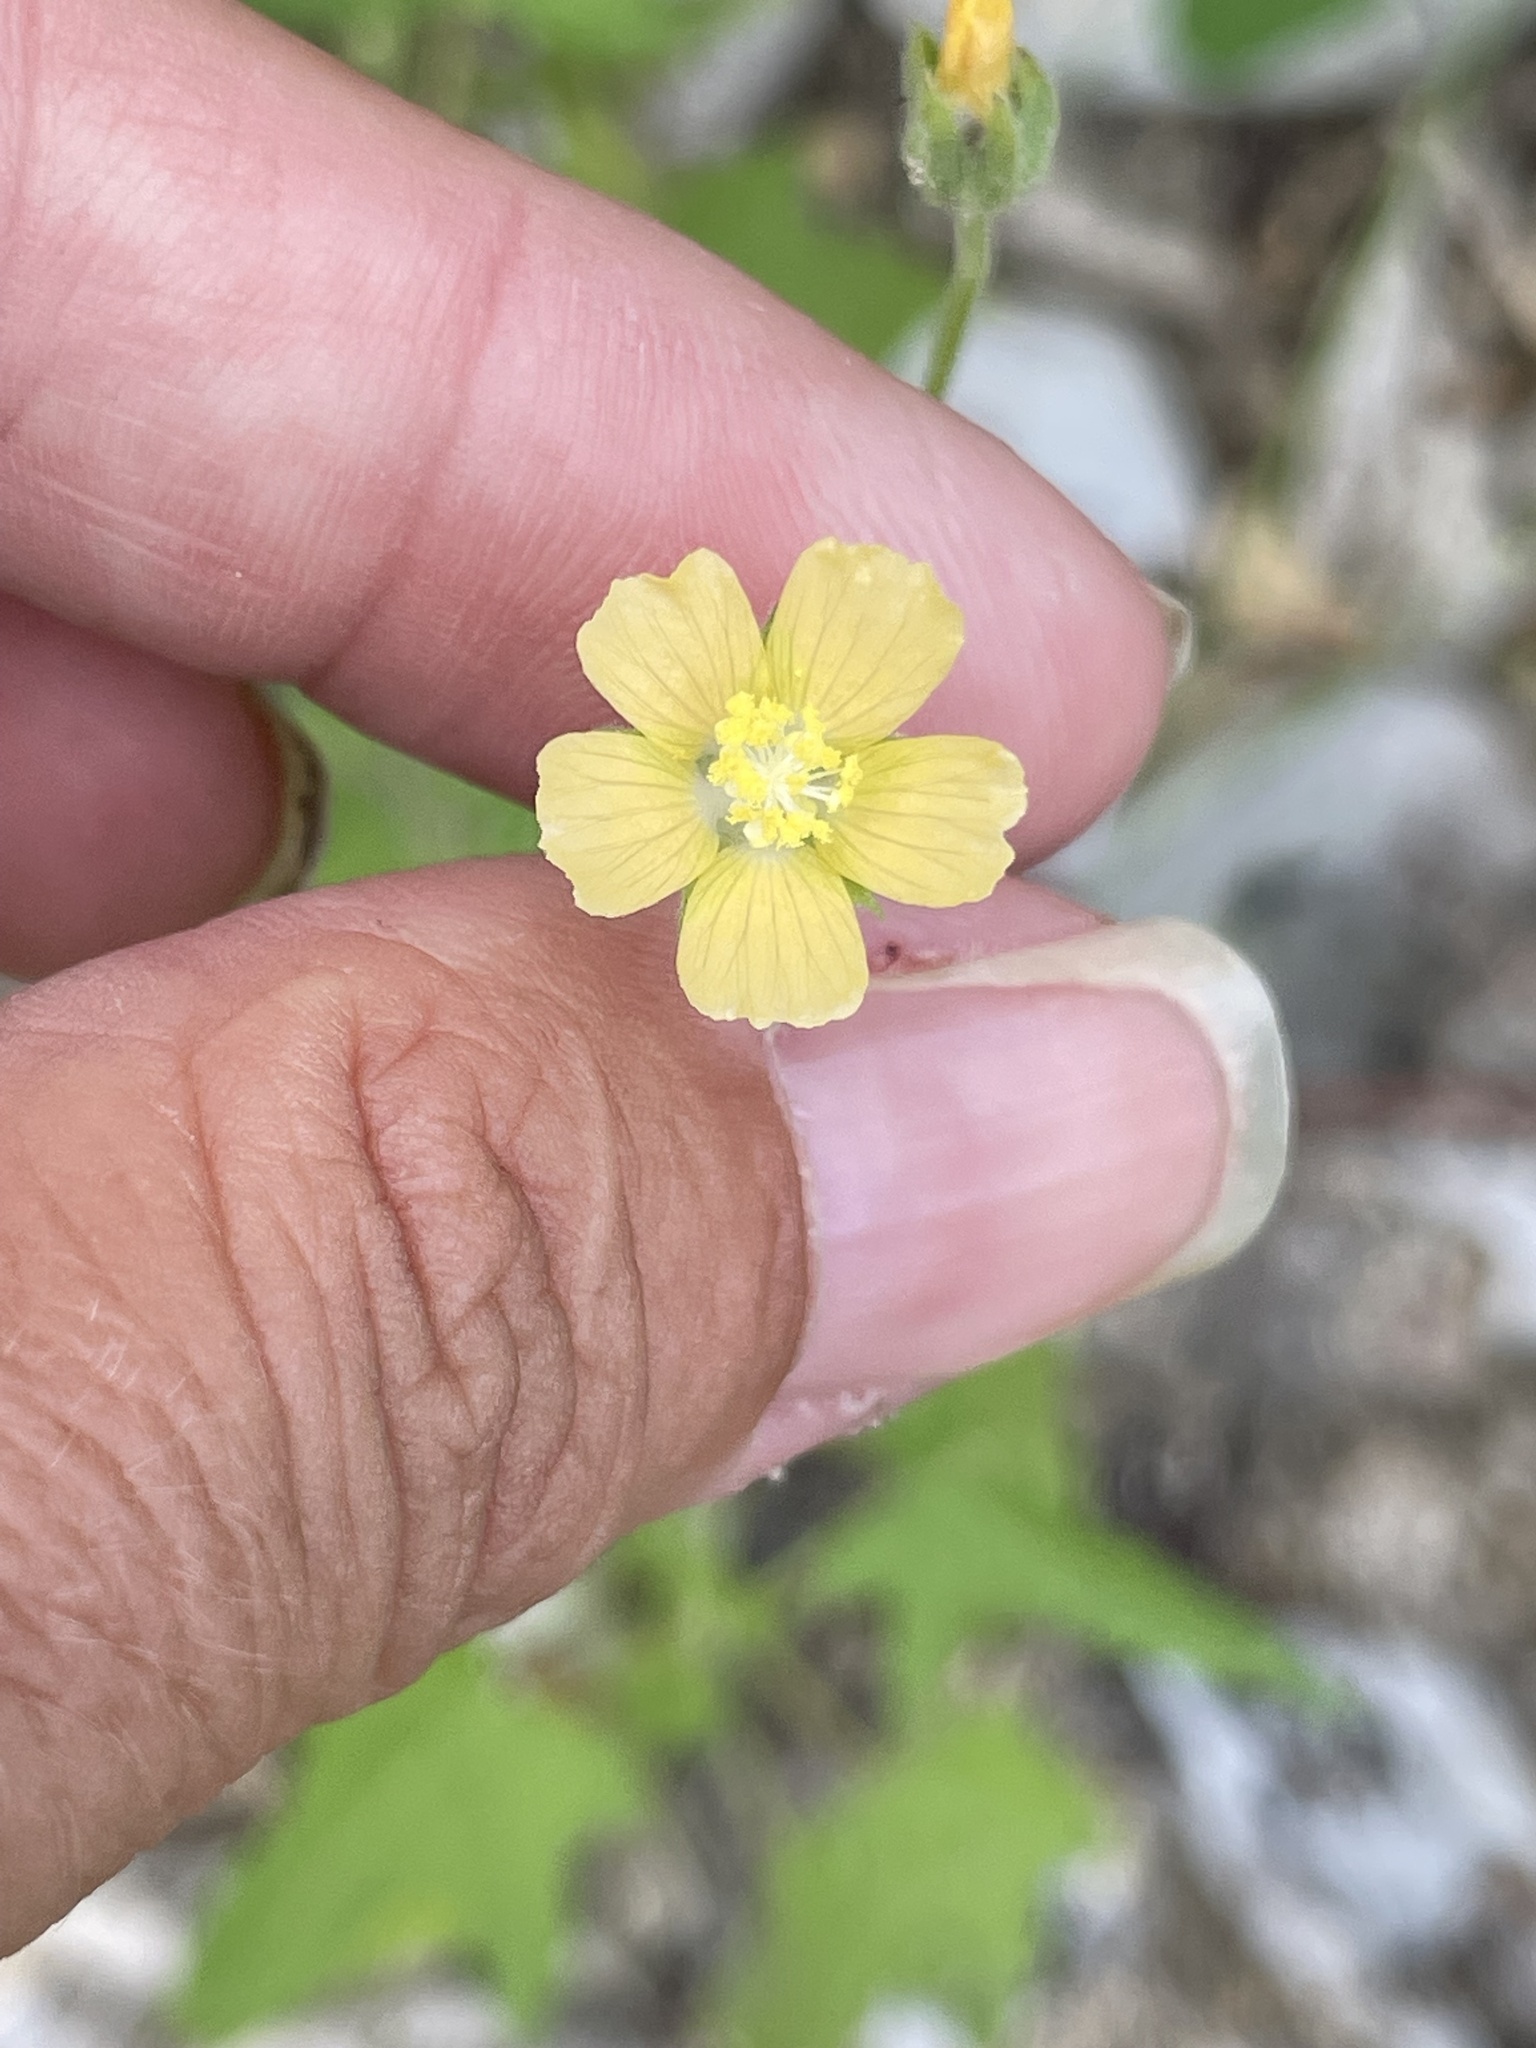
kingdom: Plantae
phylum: Tracheophyta
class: Magnoliopsida
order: Malvales
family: Malvaceae
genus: Anoda
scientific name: Anoda palmata
